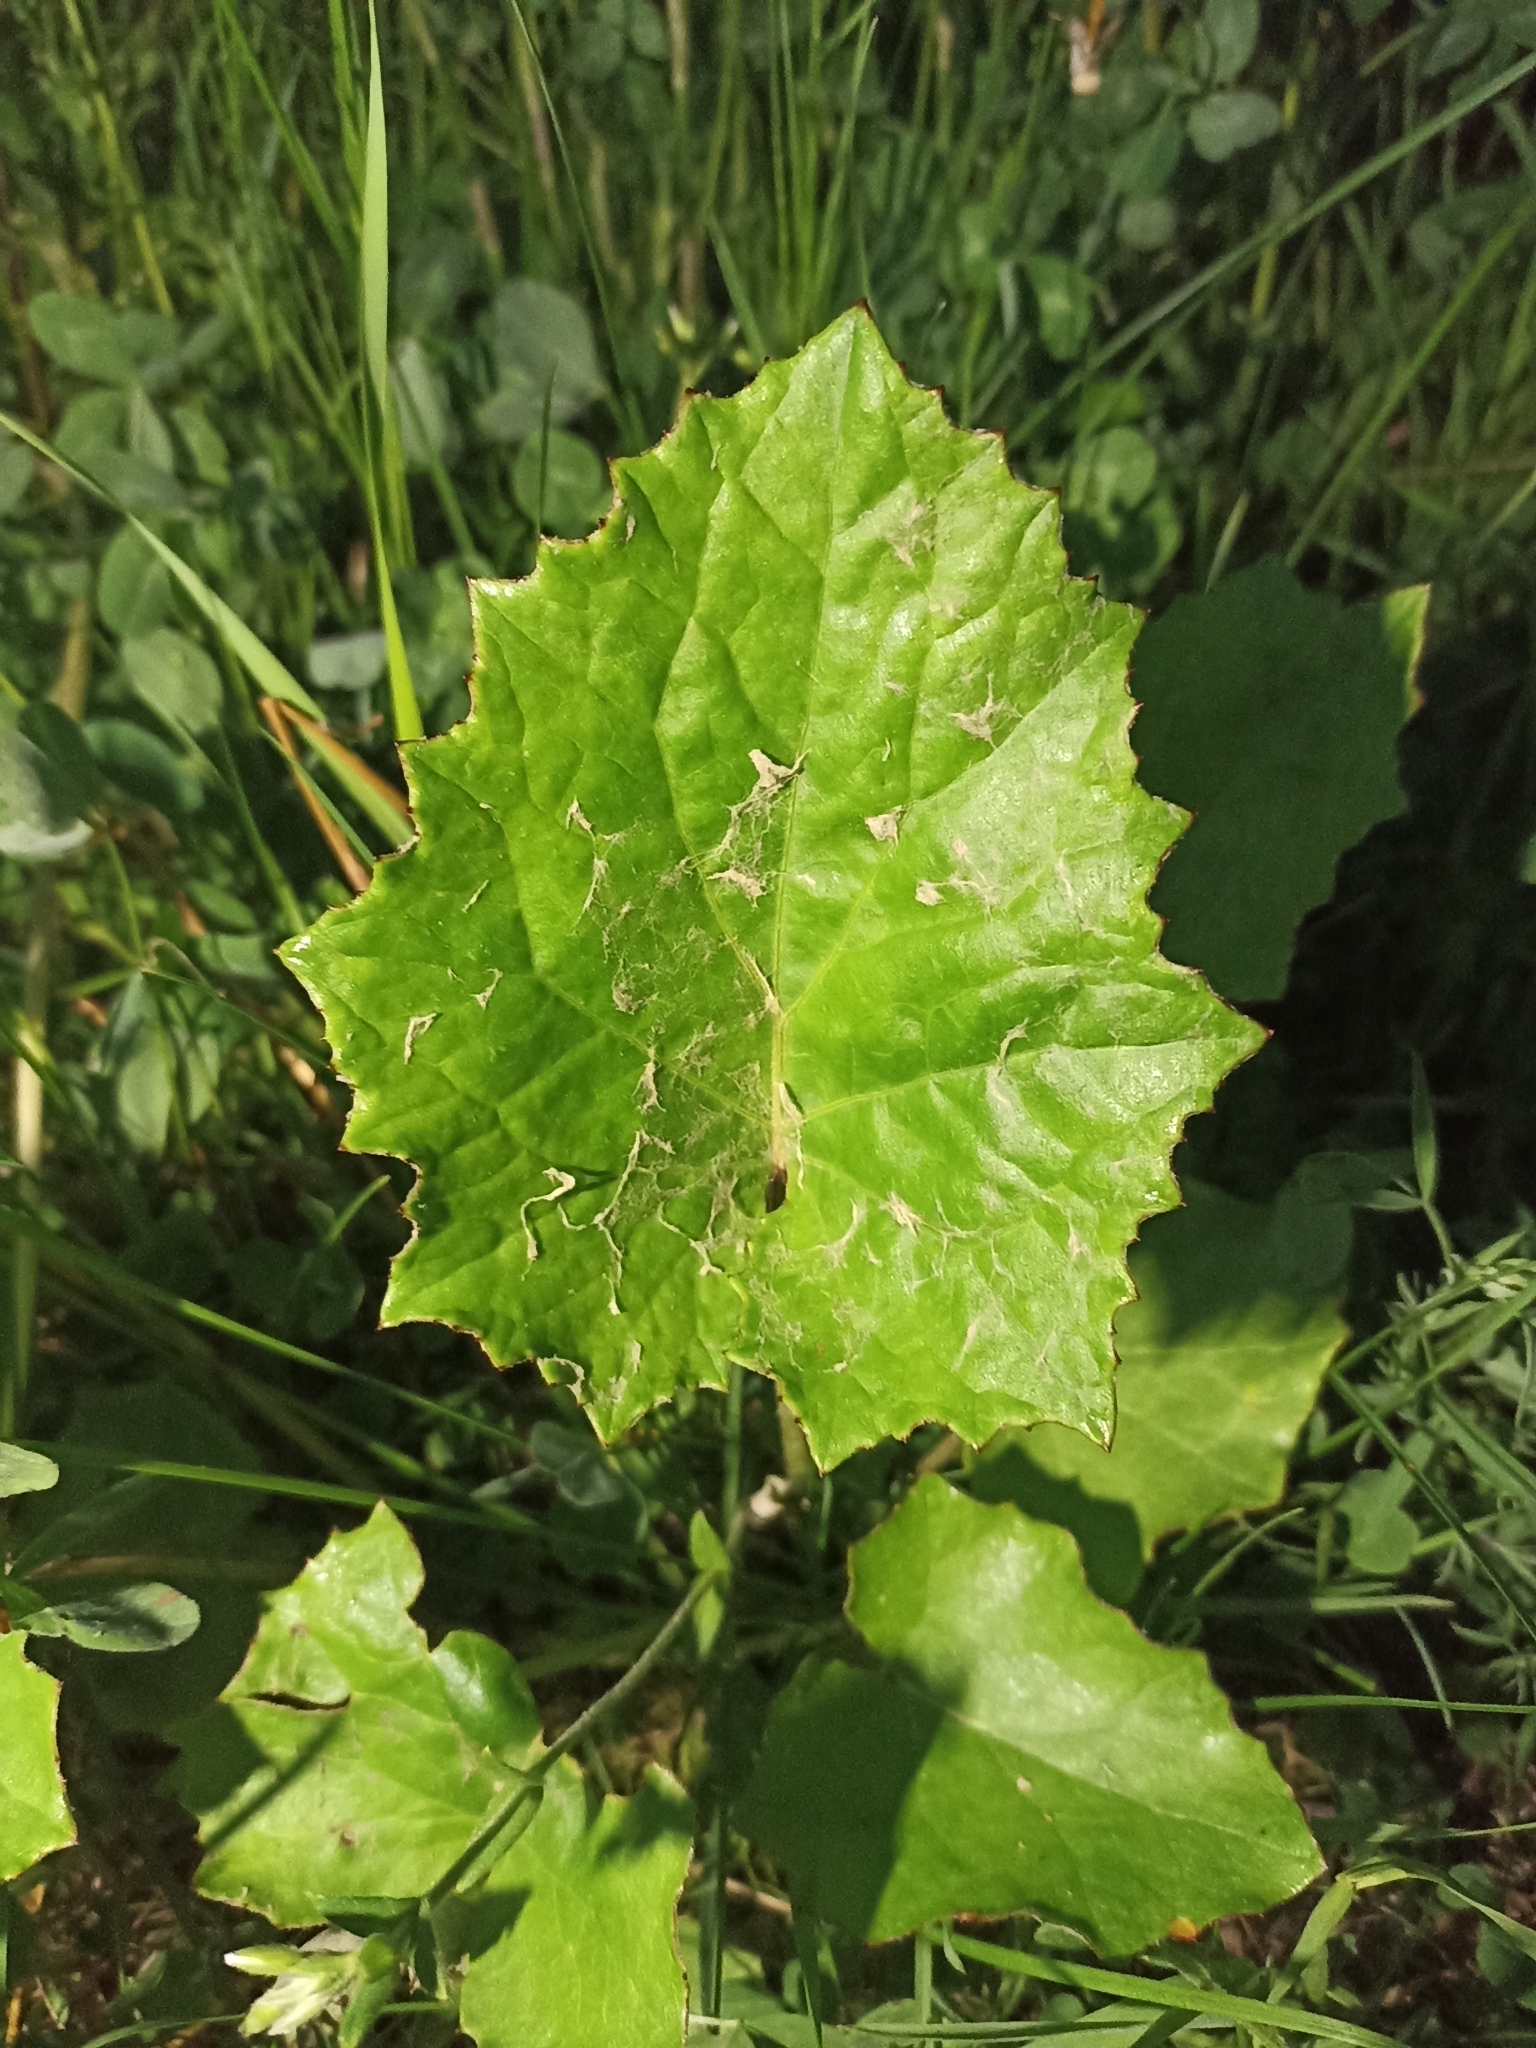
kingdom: Plantae
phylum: Tracheophyta
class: Magnoliopsida
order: Asterales
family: Asteraceae
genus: Tussilago
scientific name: Tussilago farfara
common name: Coltsfoot
